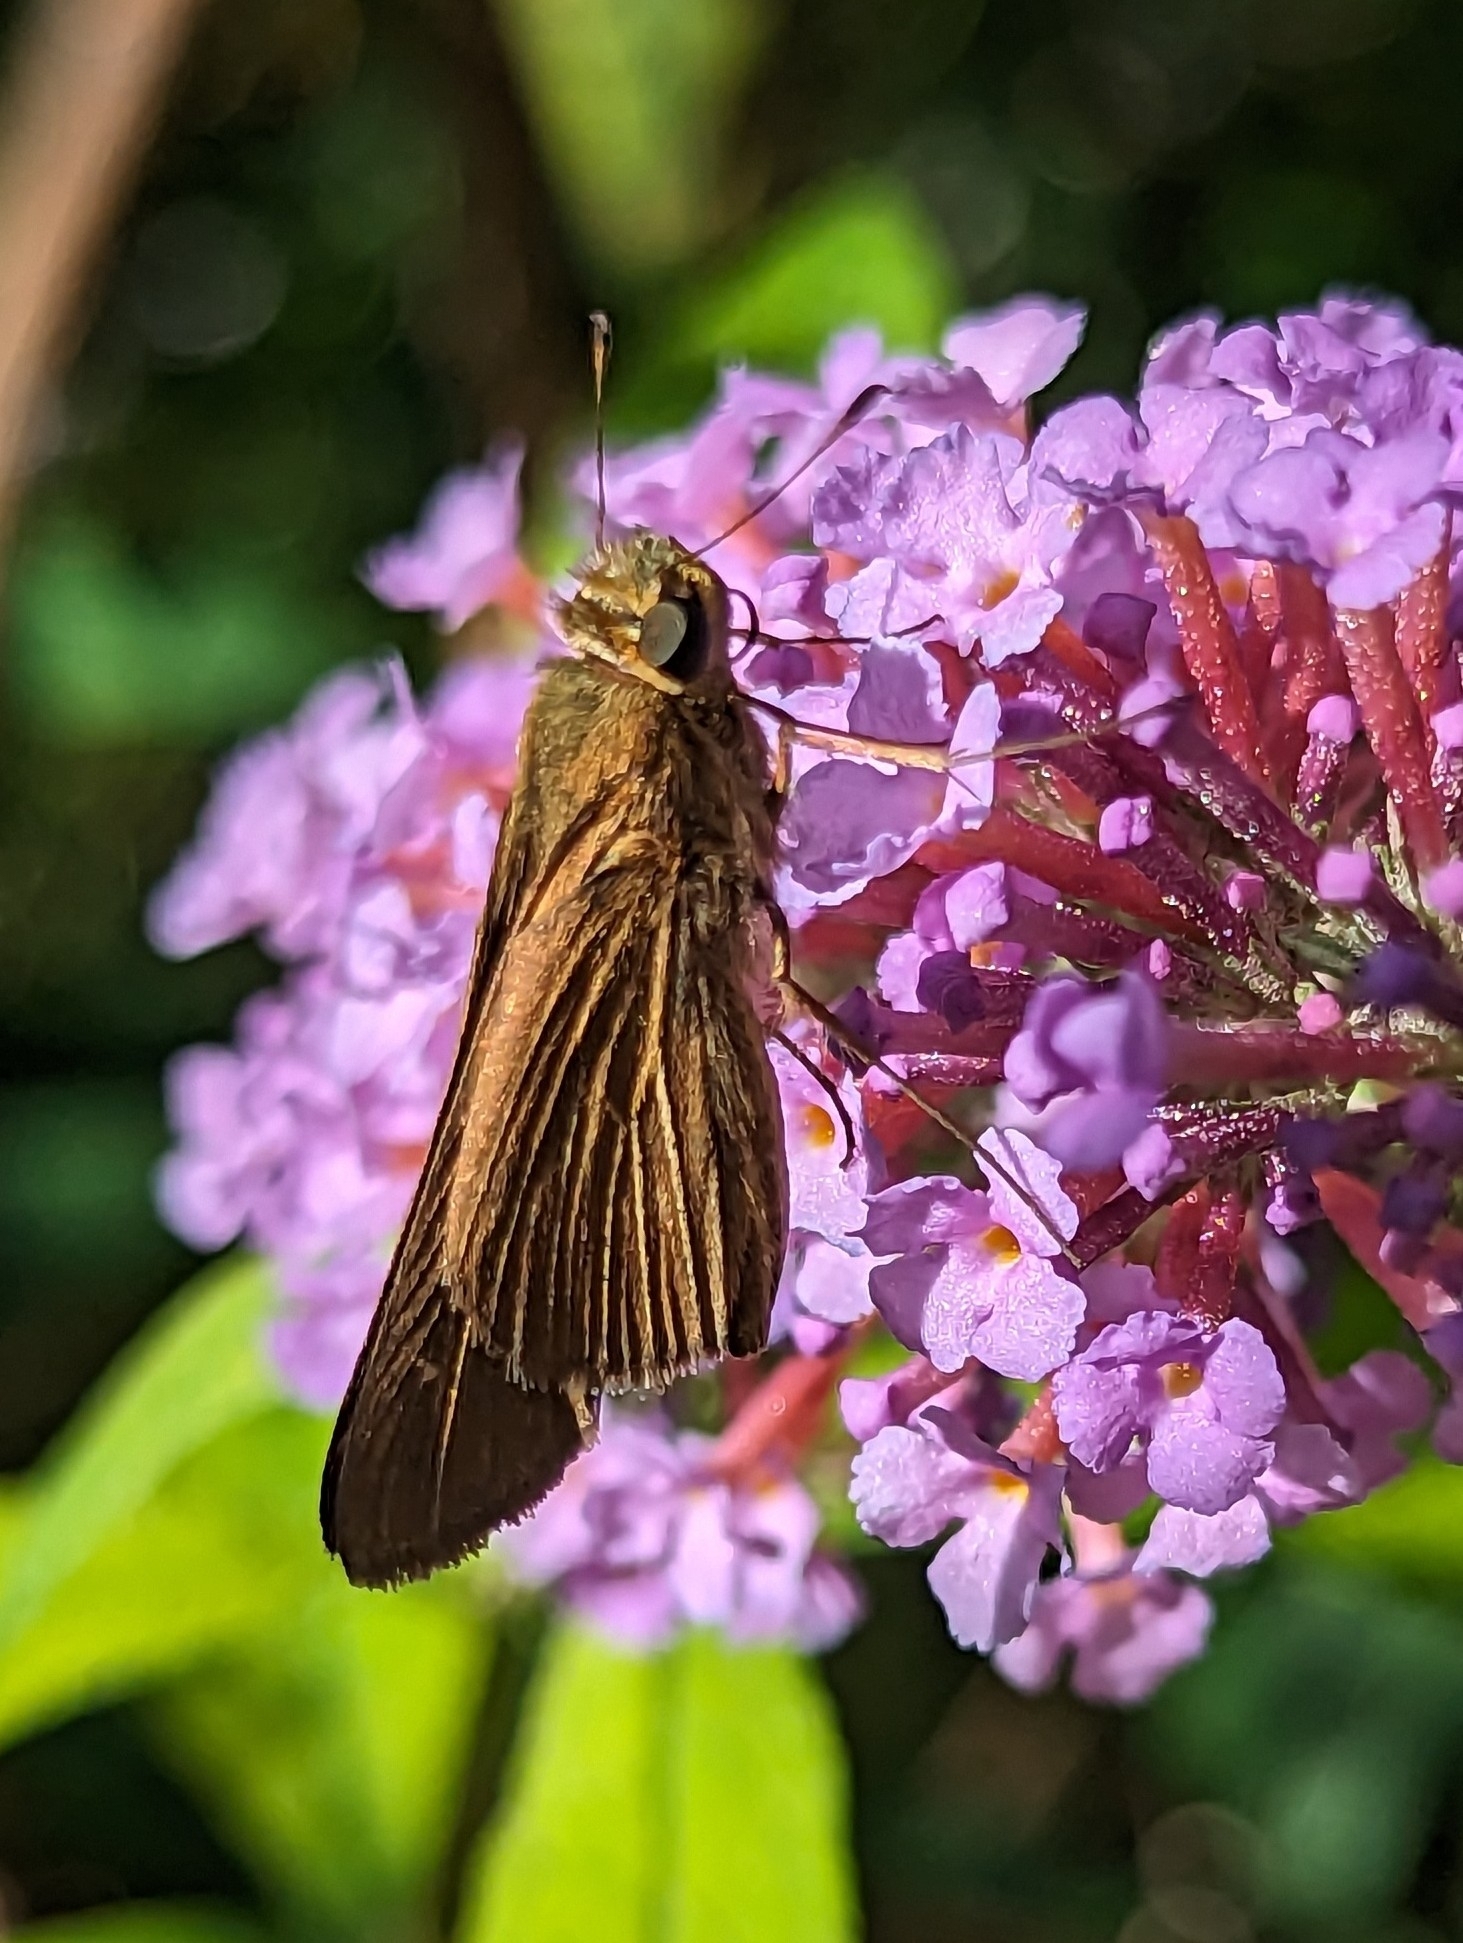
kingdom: Animalia
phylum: Arthropoda
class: Insecta
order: Lepidoptera
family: Hesperiidae
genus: Panoquina
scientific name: Panoquina ocola
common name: Ocola skipper
